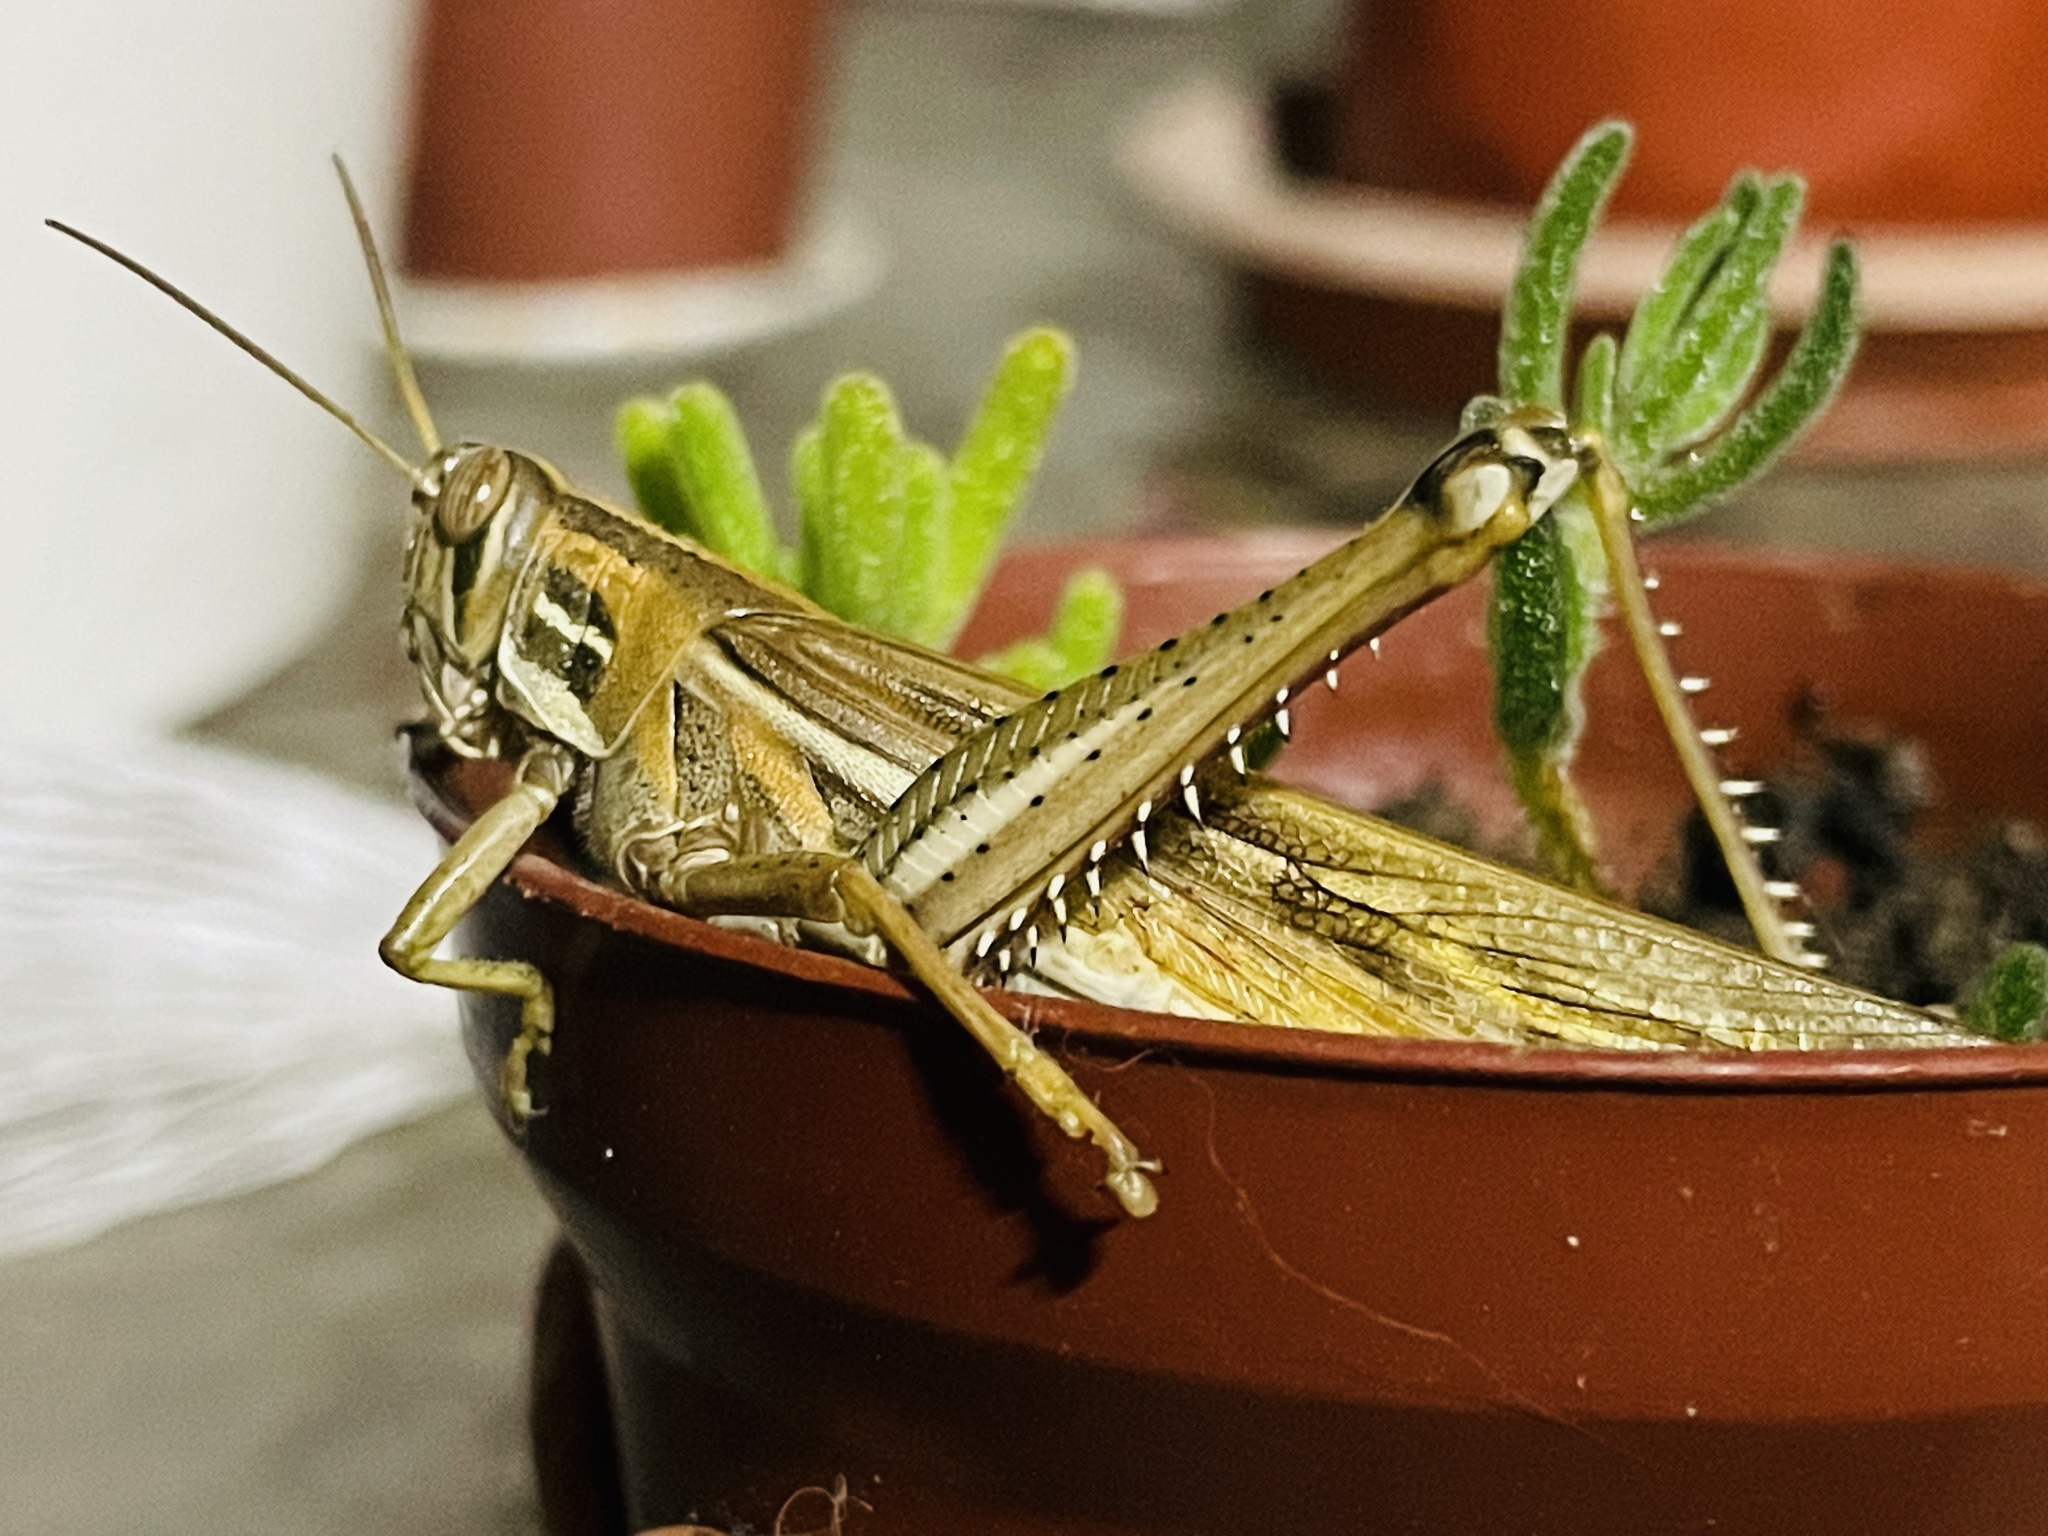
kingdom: Animalia
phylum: Arthropoda
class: Insecta
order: Orthoptera
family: Acrididae
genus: Schistocerca
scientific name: Schistocerca cancellata
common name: South american locust
